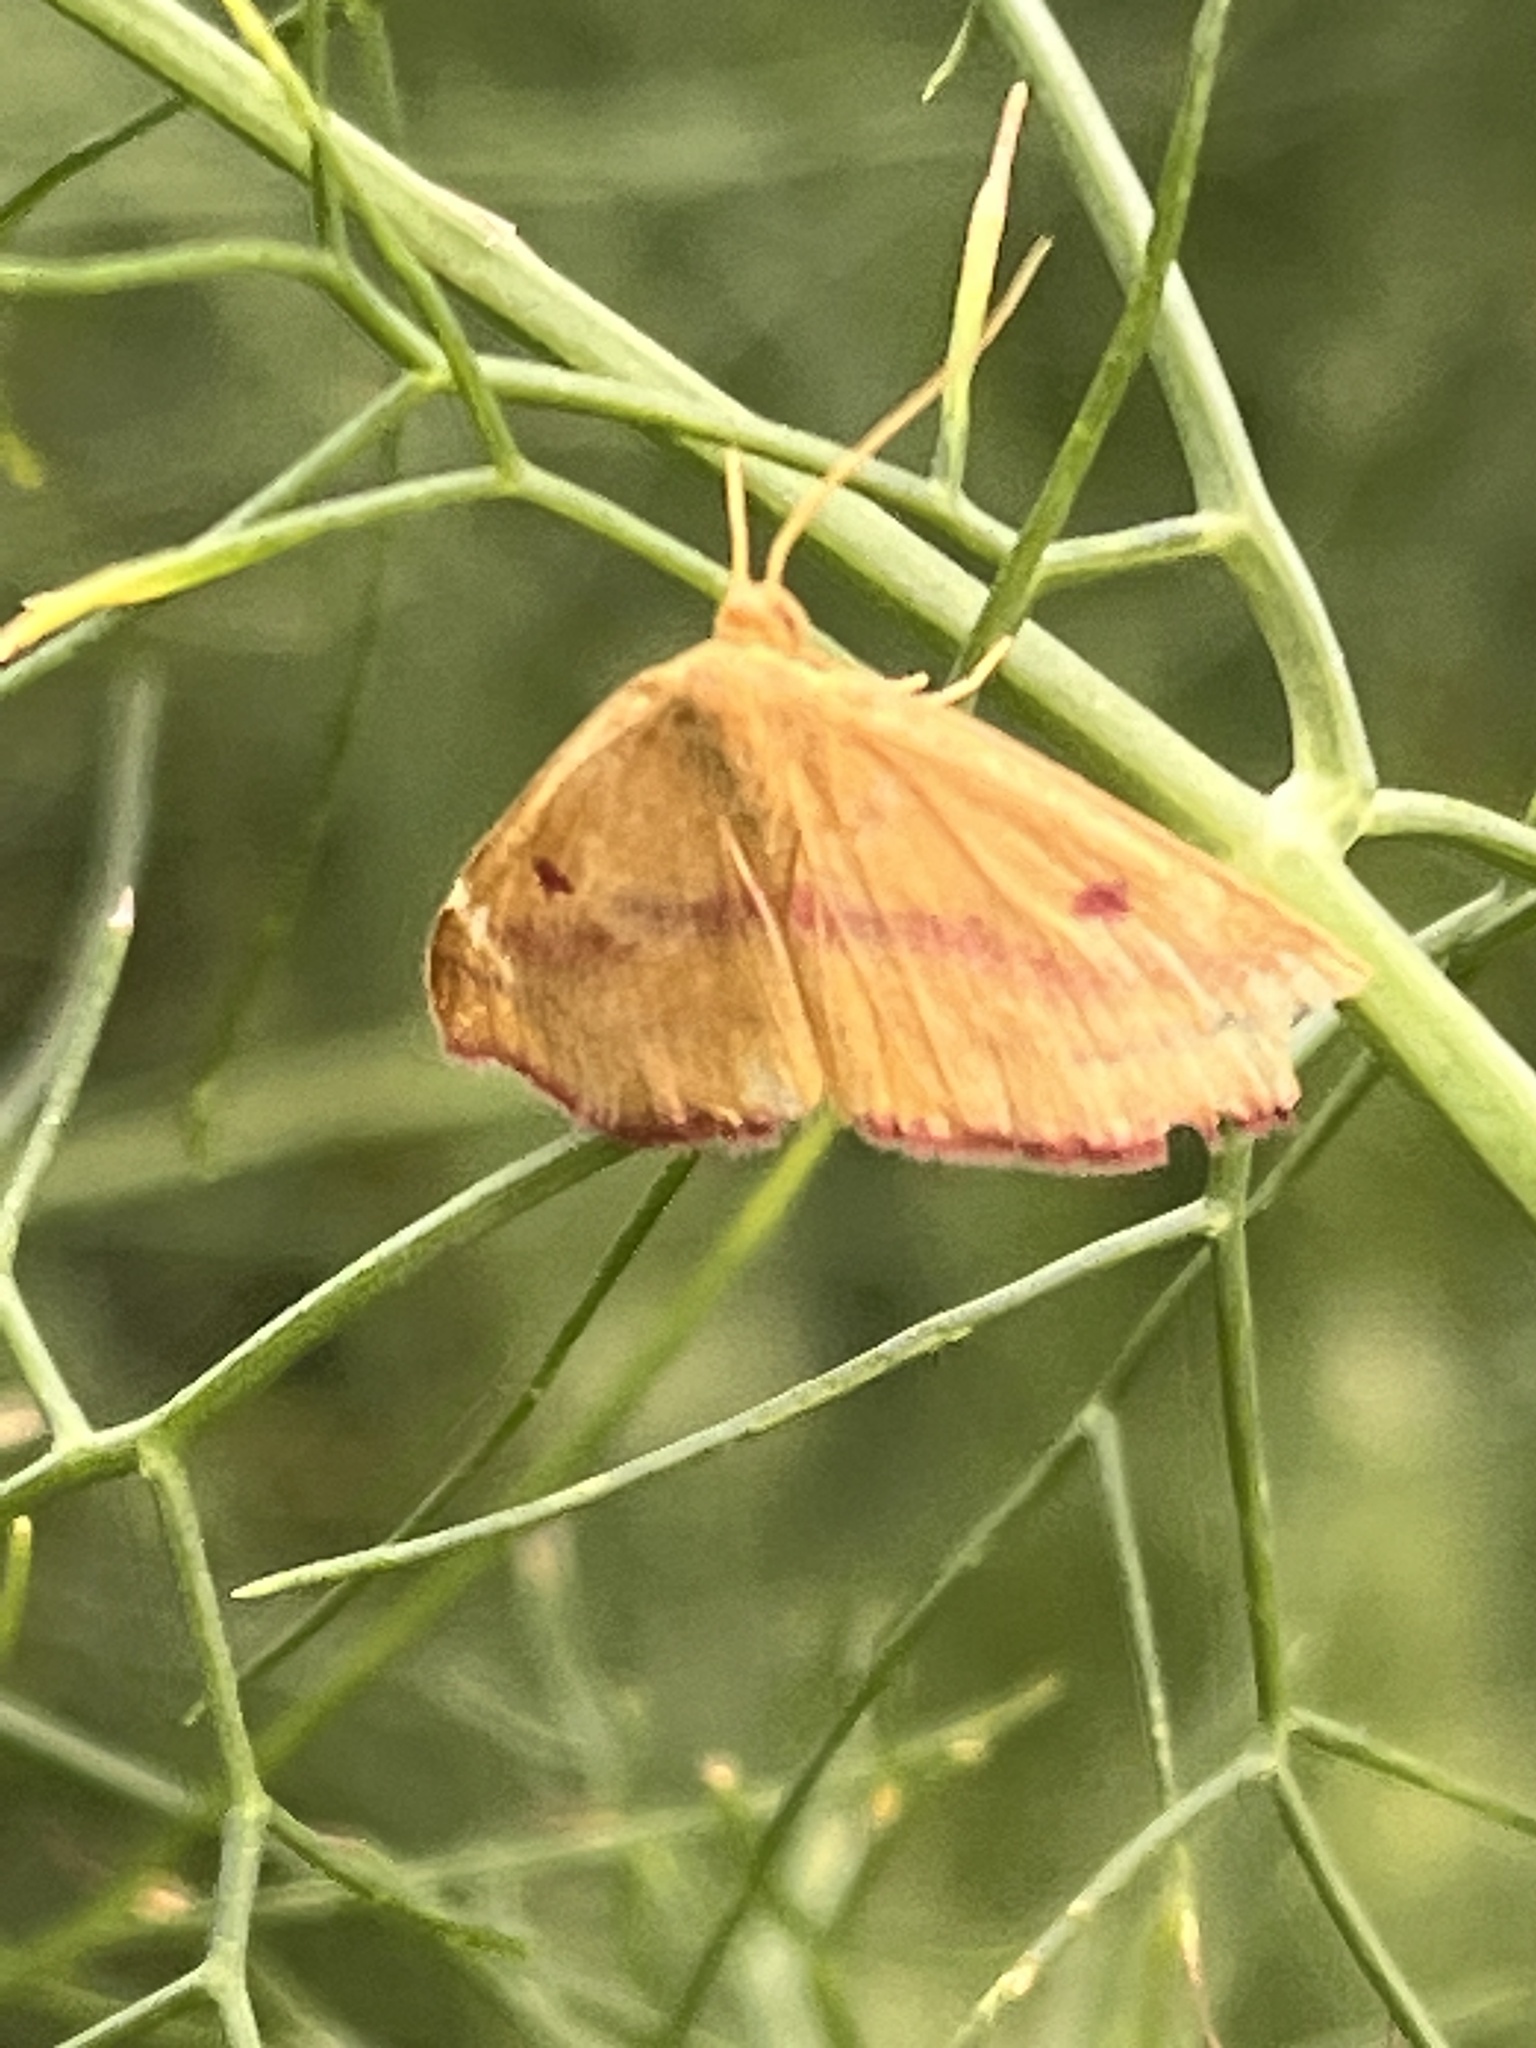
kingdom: Animalia
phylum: Arthropoda
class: Insecta
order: Lepidoptera
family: Geometridae
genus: Haematopis
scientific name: Haematopis grataria
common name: Chickweed geometer
